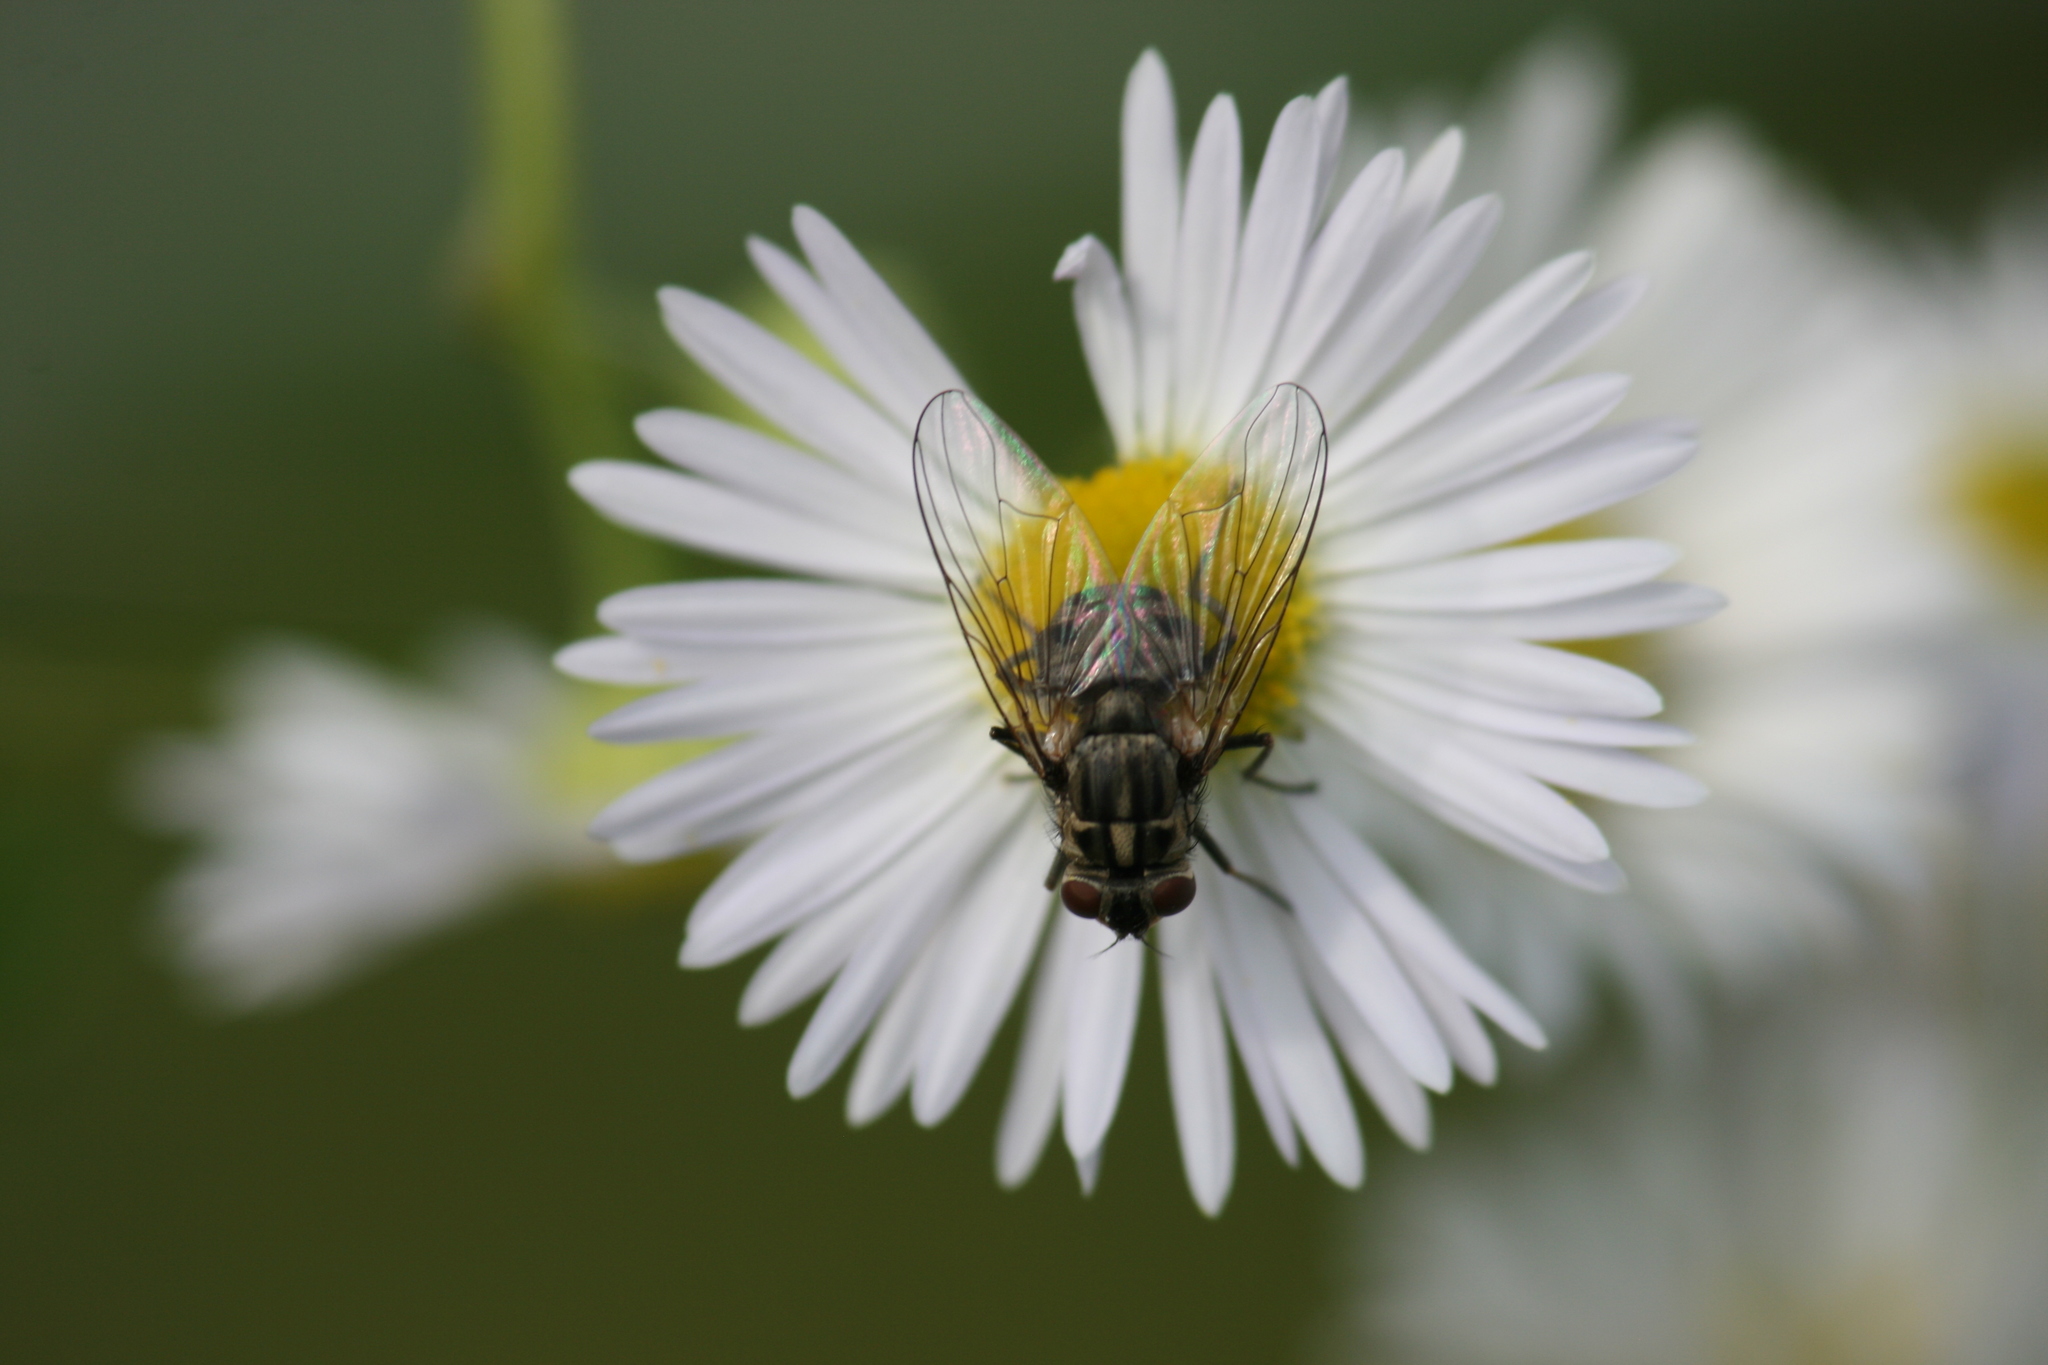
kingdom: Animalia
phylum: Arthropoda
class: Insecta
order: Diptera
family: Muscidae
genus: Stomoxys
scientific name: Stomoxys calcitrans
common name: Stable fly
